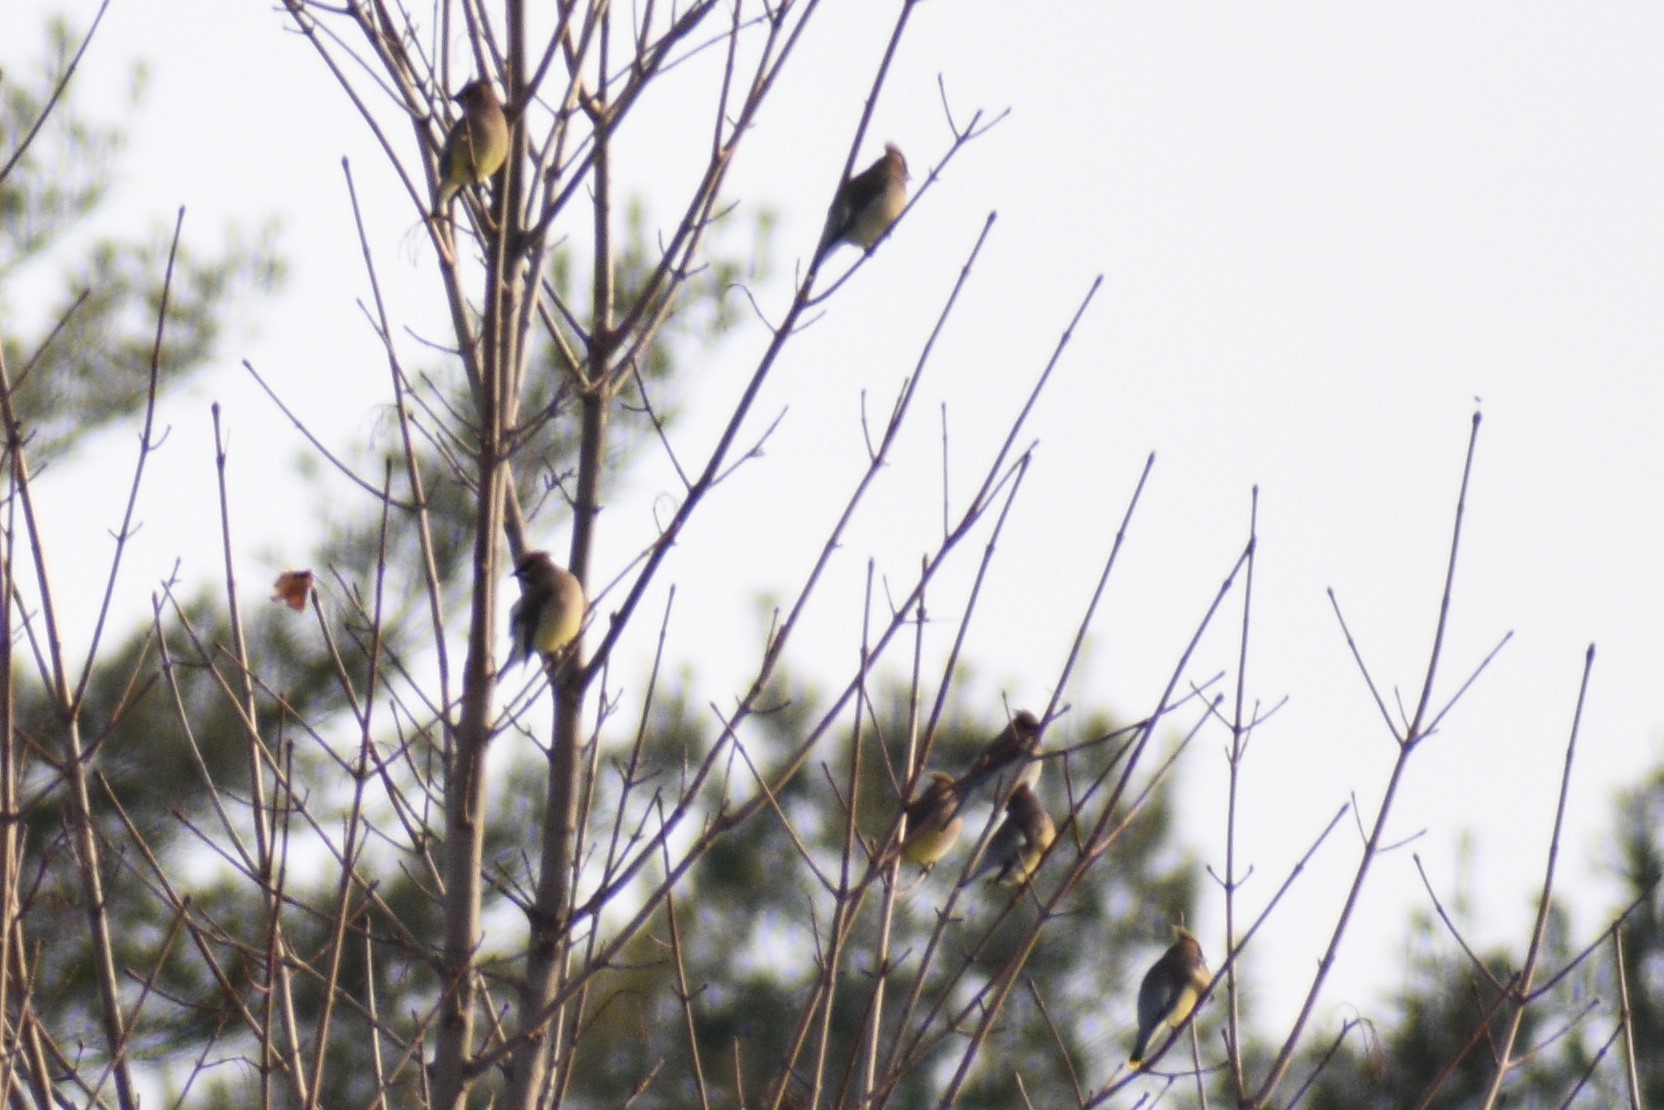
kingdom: Animalia
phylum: Chordata
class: Aves
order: Passeriformes
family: Bombycillidae
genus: Bombycilla
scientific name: Bombycilla cedrorum
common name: Cedar waxwing
